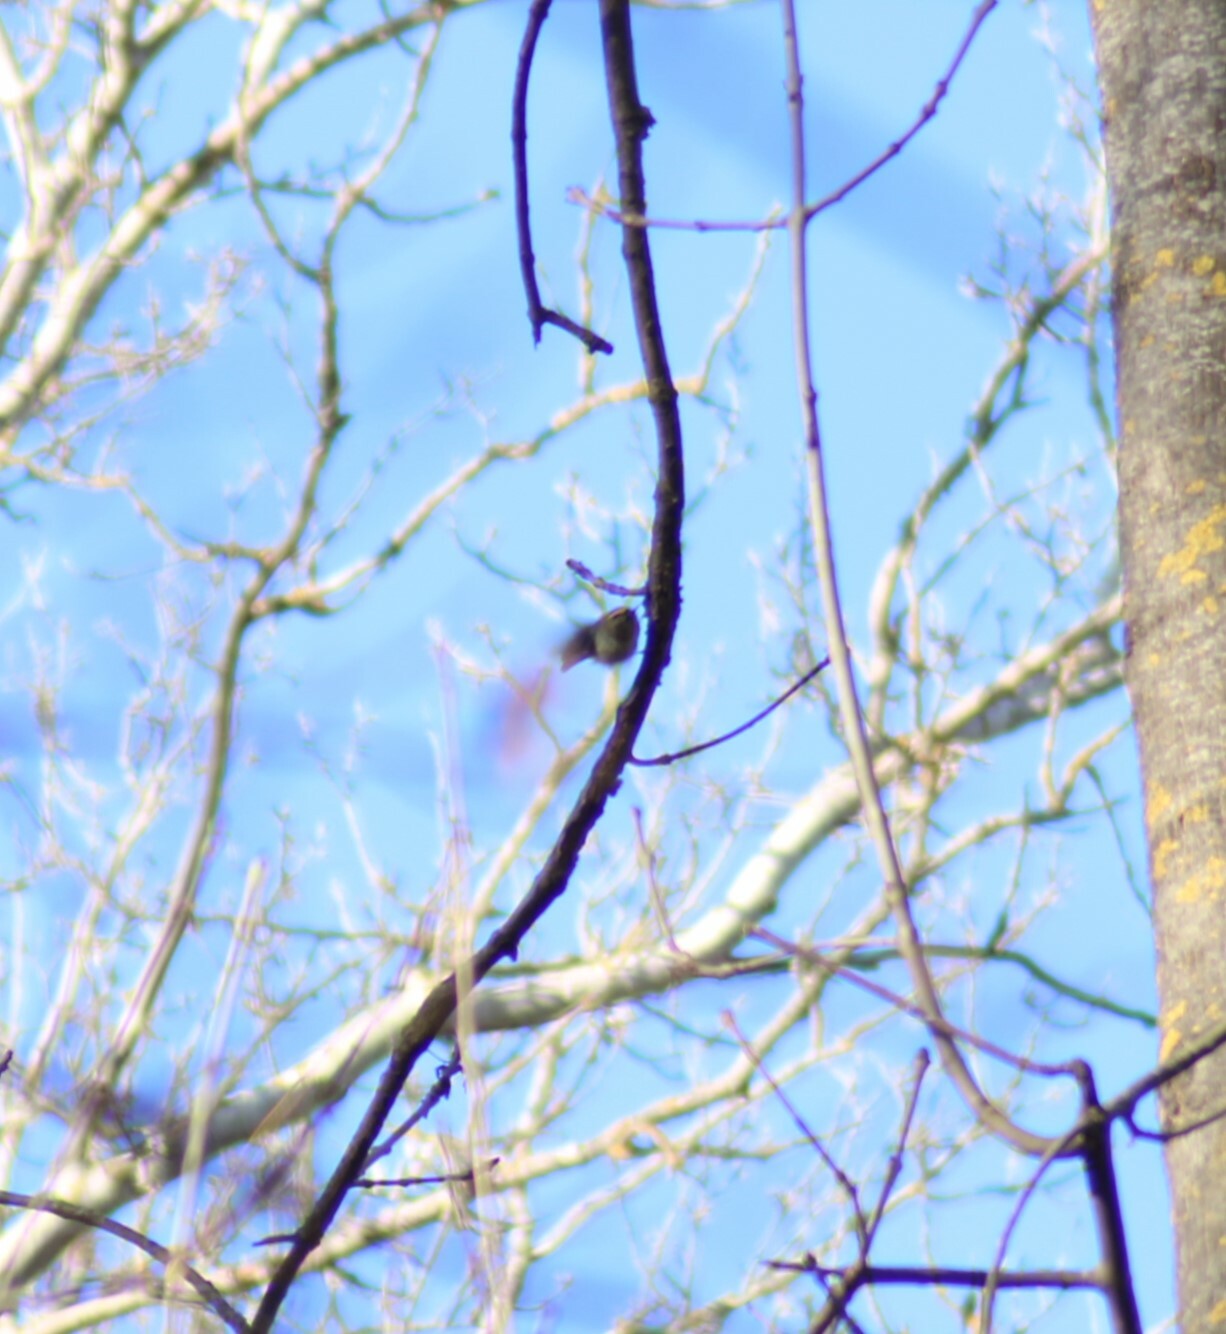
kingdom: Animalia
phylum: Chordata
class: Aves
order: Passeriformes
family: Regulidae
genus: Regulus
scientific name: Regulus regulus
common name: Goldcrest
